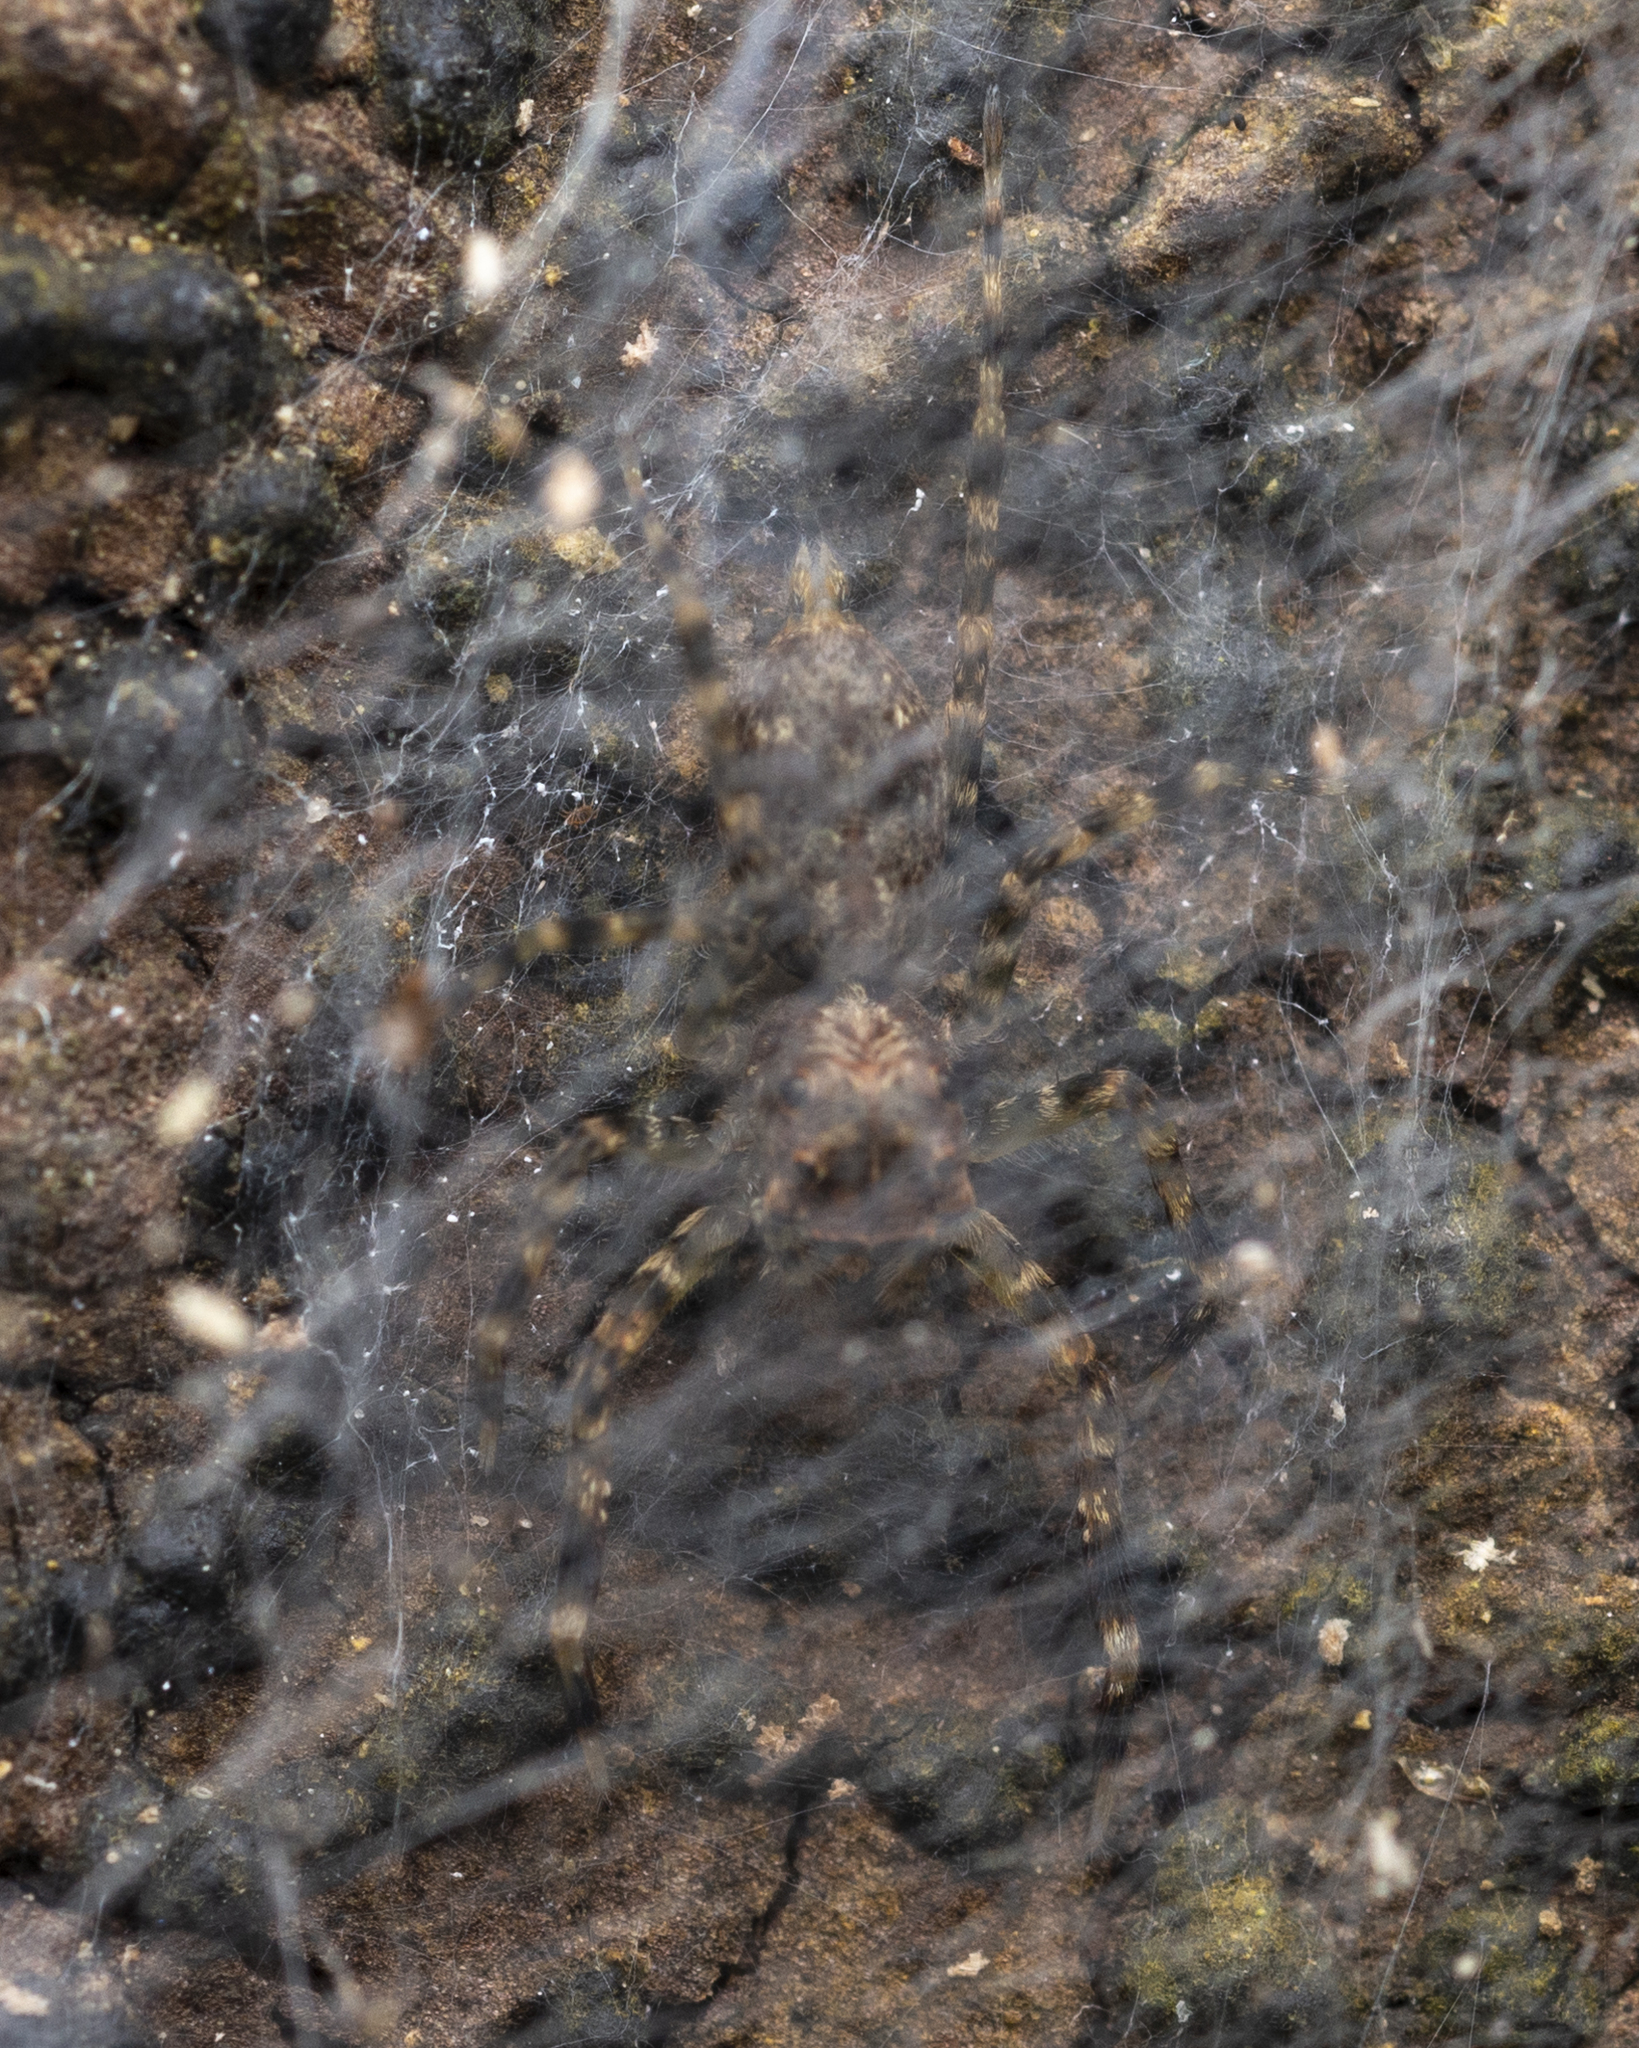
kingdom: Animalia
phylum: Arthropoda
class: Arachnida
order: Araneae
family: Salticidae
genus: Spartaeus
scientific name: Spartaeus zhangi
